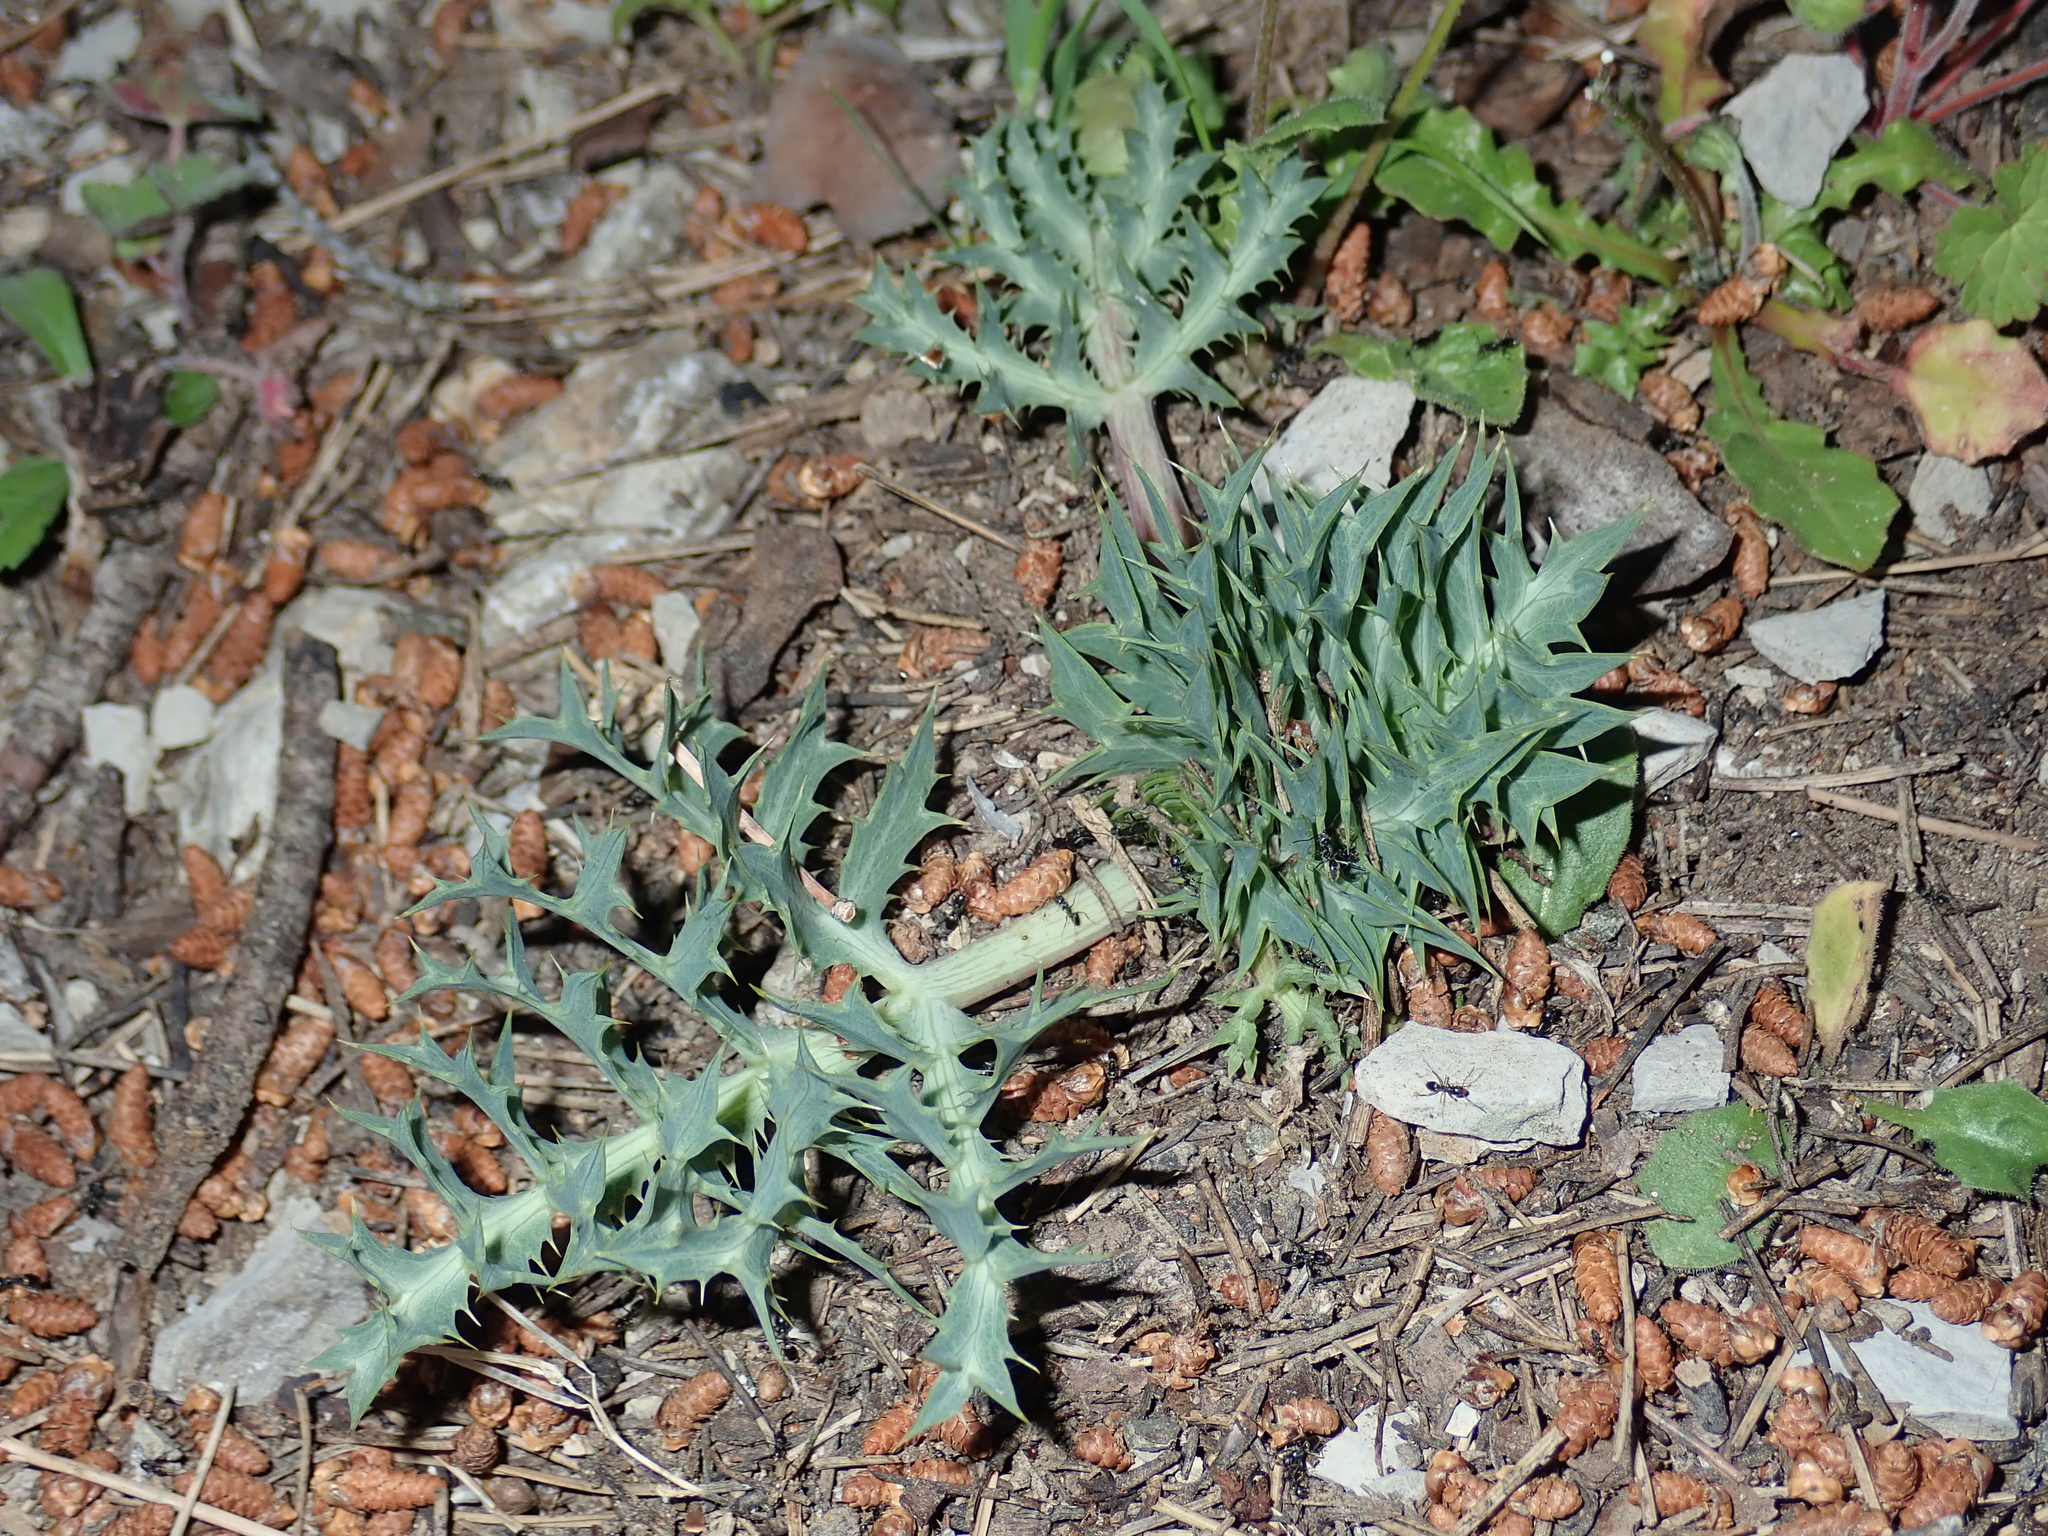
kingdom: Plantae
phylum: Tracheophyta
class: Magnoliopsida
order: Apiales
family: Apiaceae
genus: Eryngium
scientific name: Eryngium campestre
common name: Field eryngo
